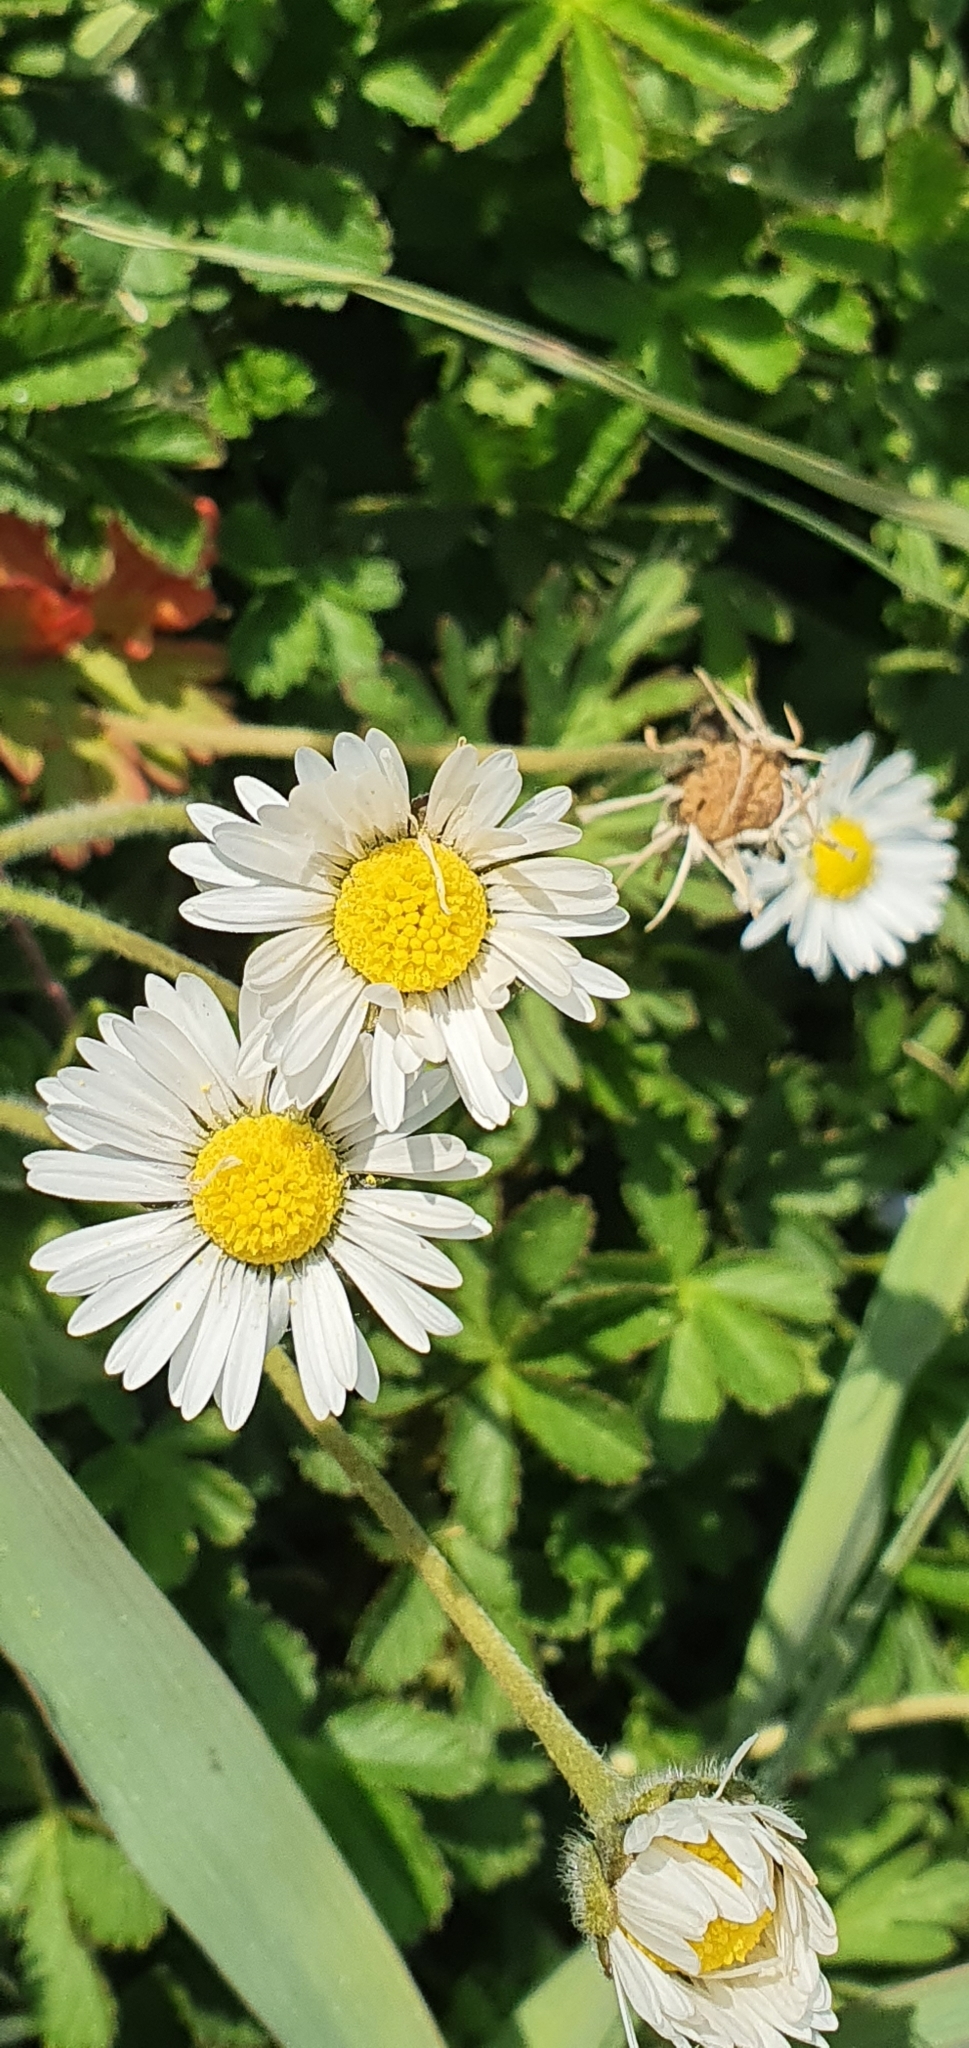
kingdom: Plantae
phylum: Tracheophyta
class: Magnoliopsida
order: Asterales
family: Asteraceae
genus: Bellis
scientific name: Bellis perennis
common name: Lawndaisy
